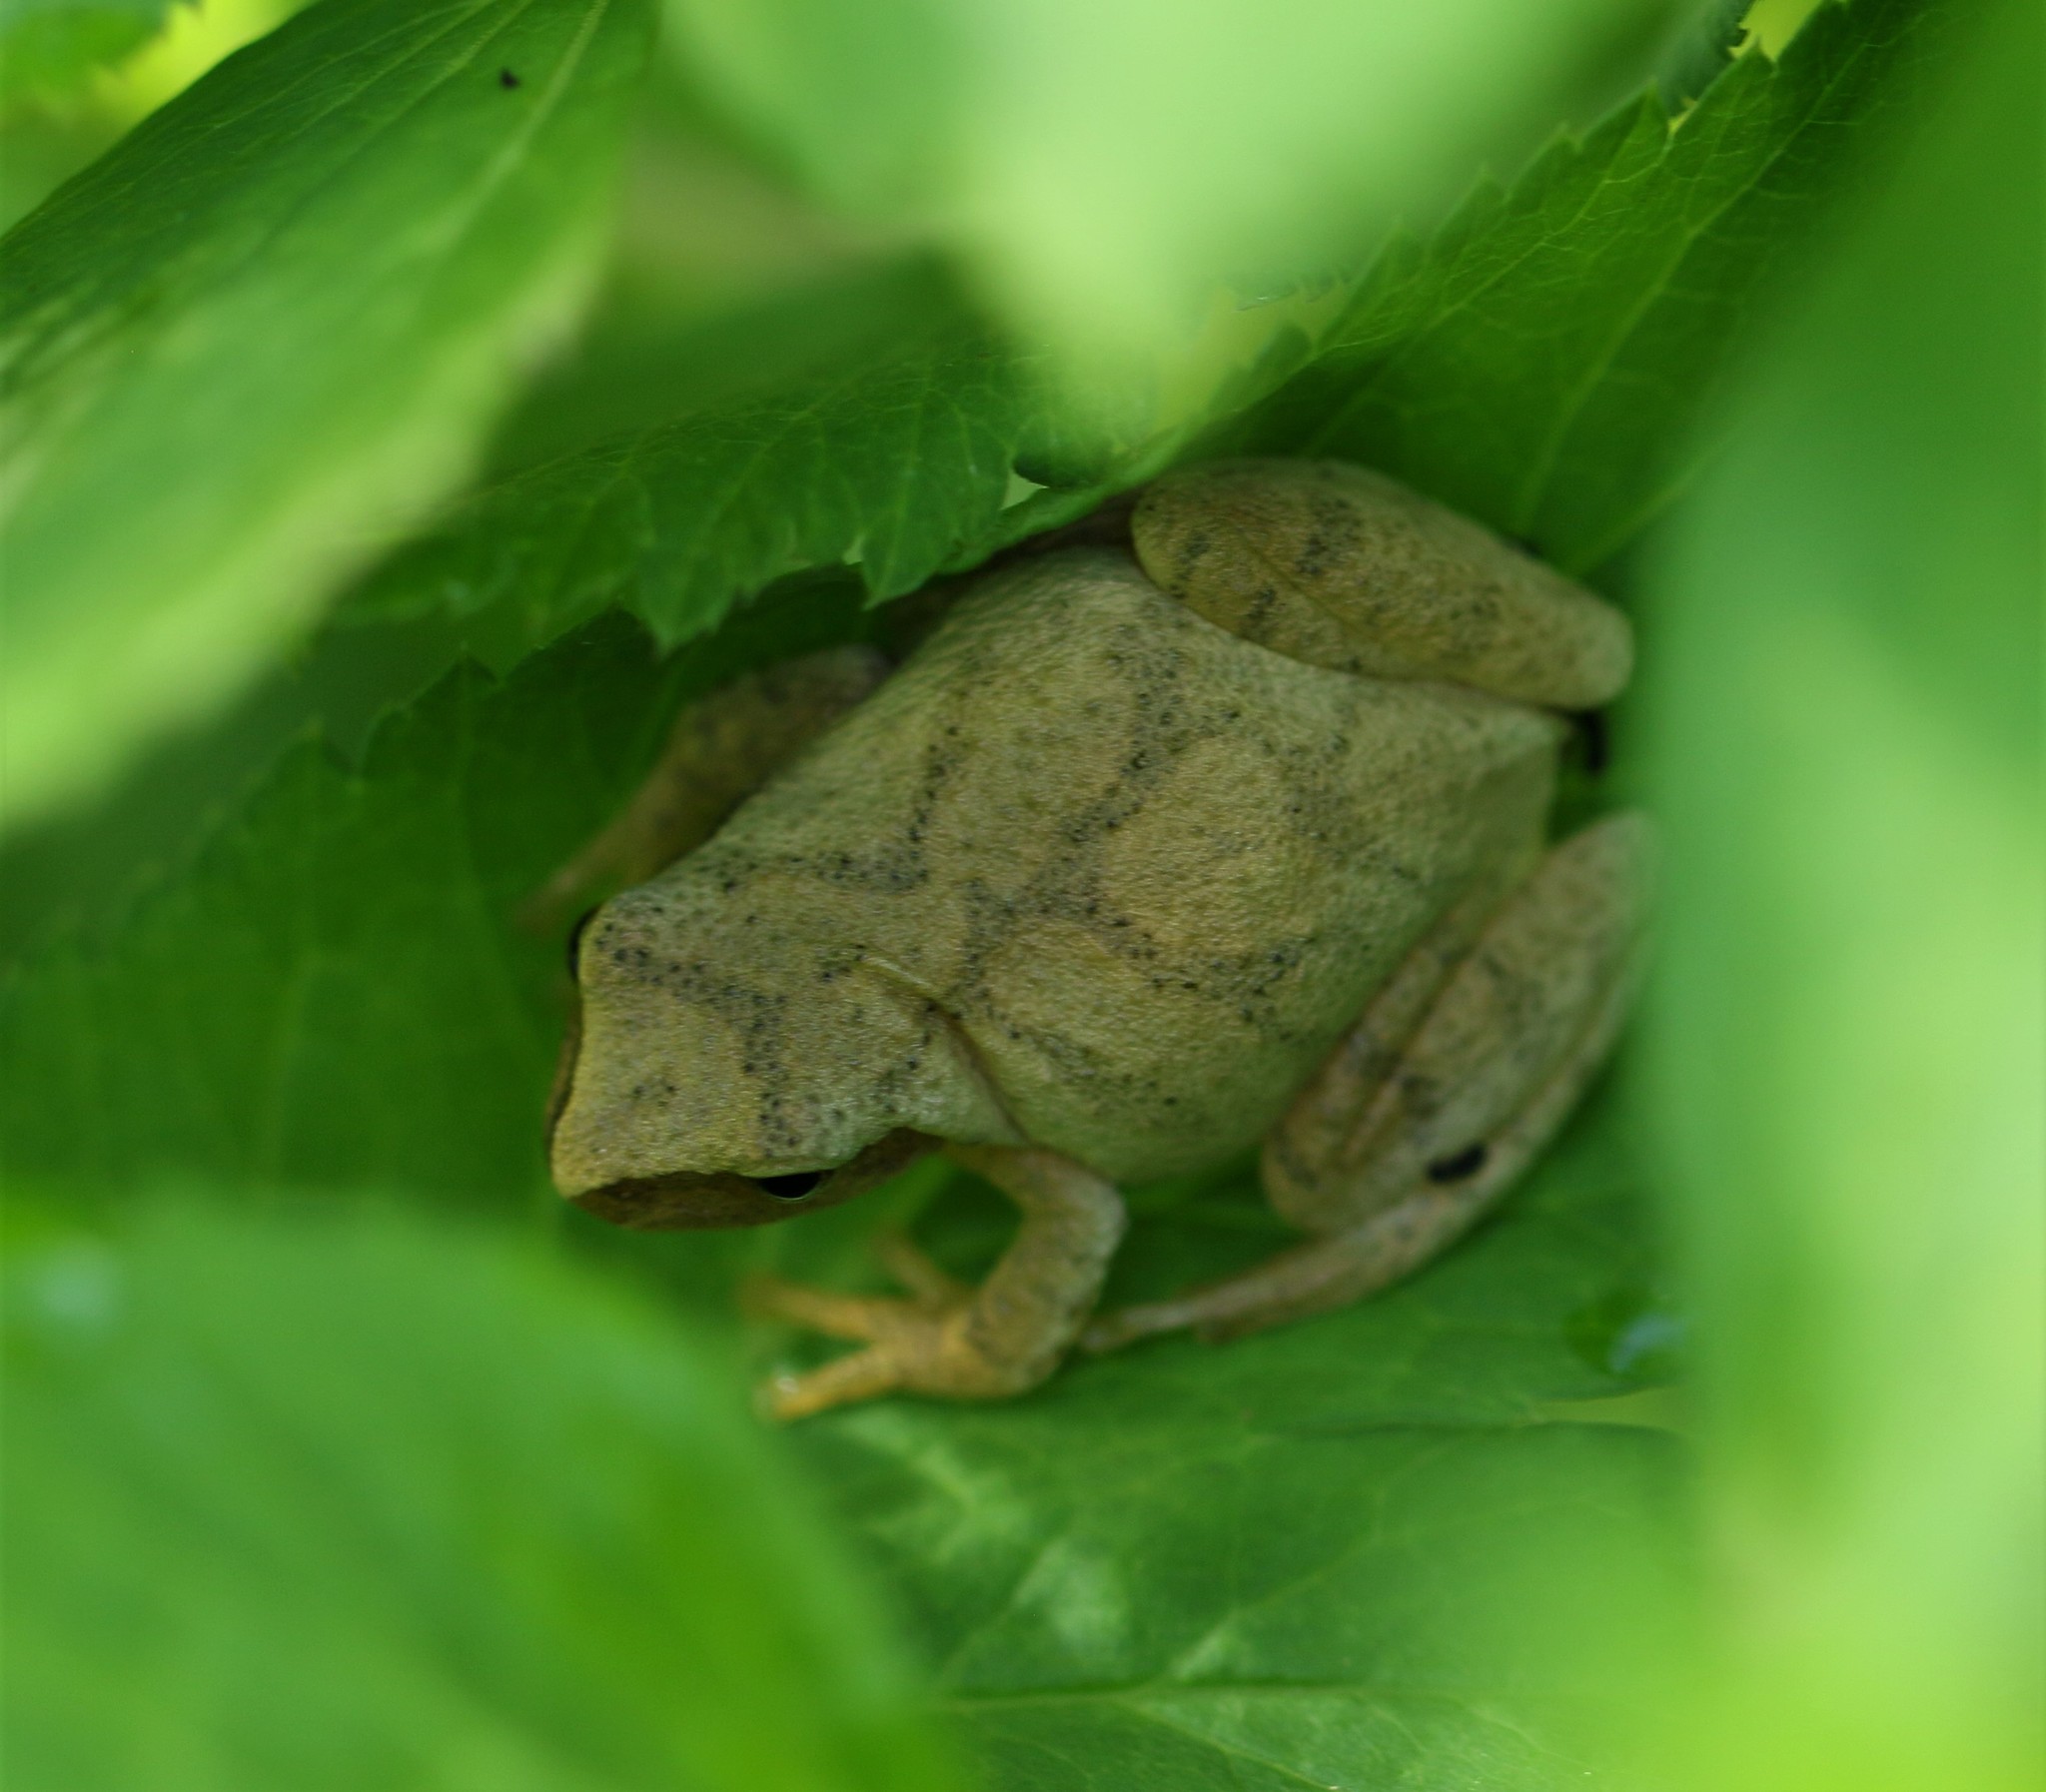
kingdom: Animalia
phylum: Chordata
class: Amphibia
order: Anura
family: Hylidae
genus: Pseudacris
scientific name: Pseudacris crucifer
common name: Spring peeper
